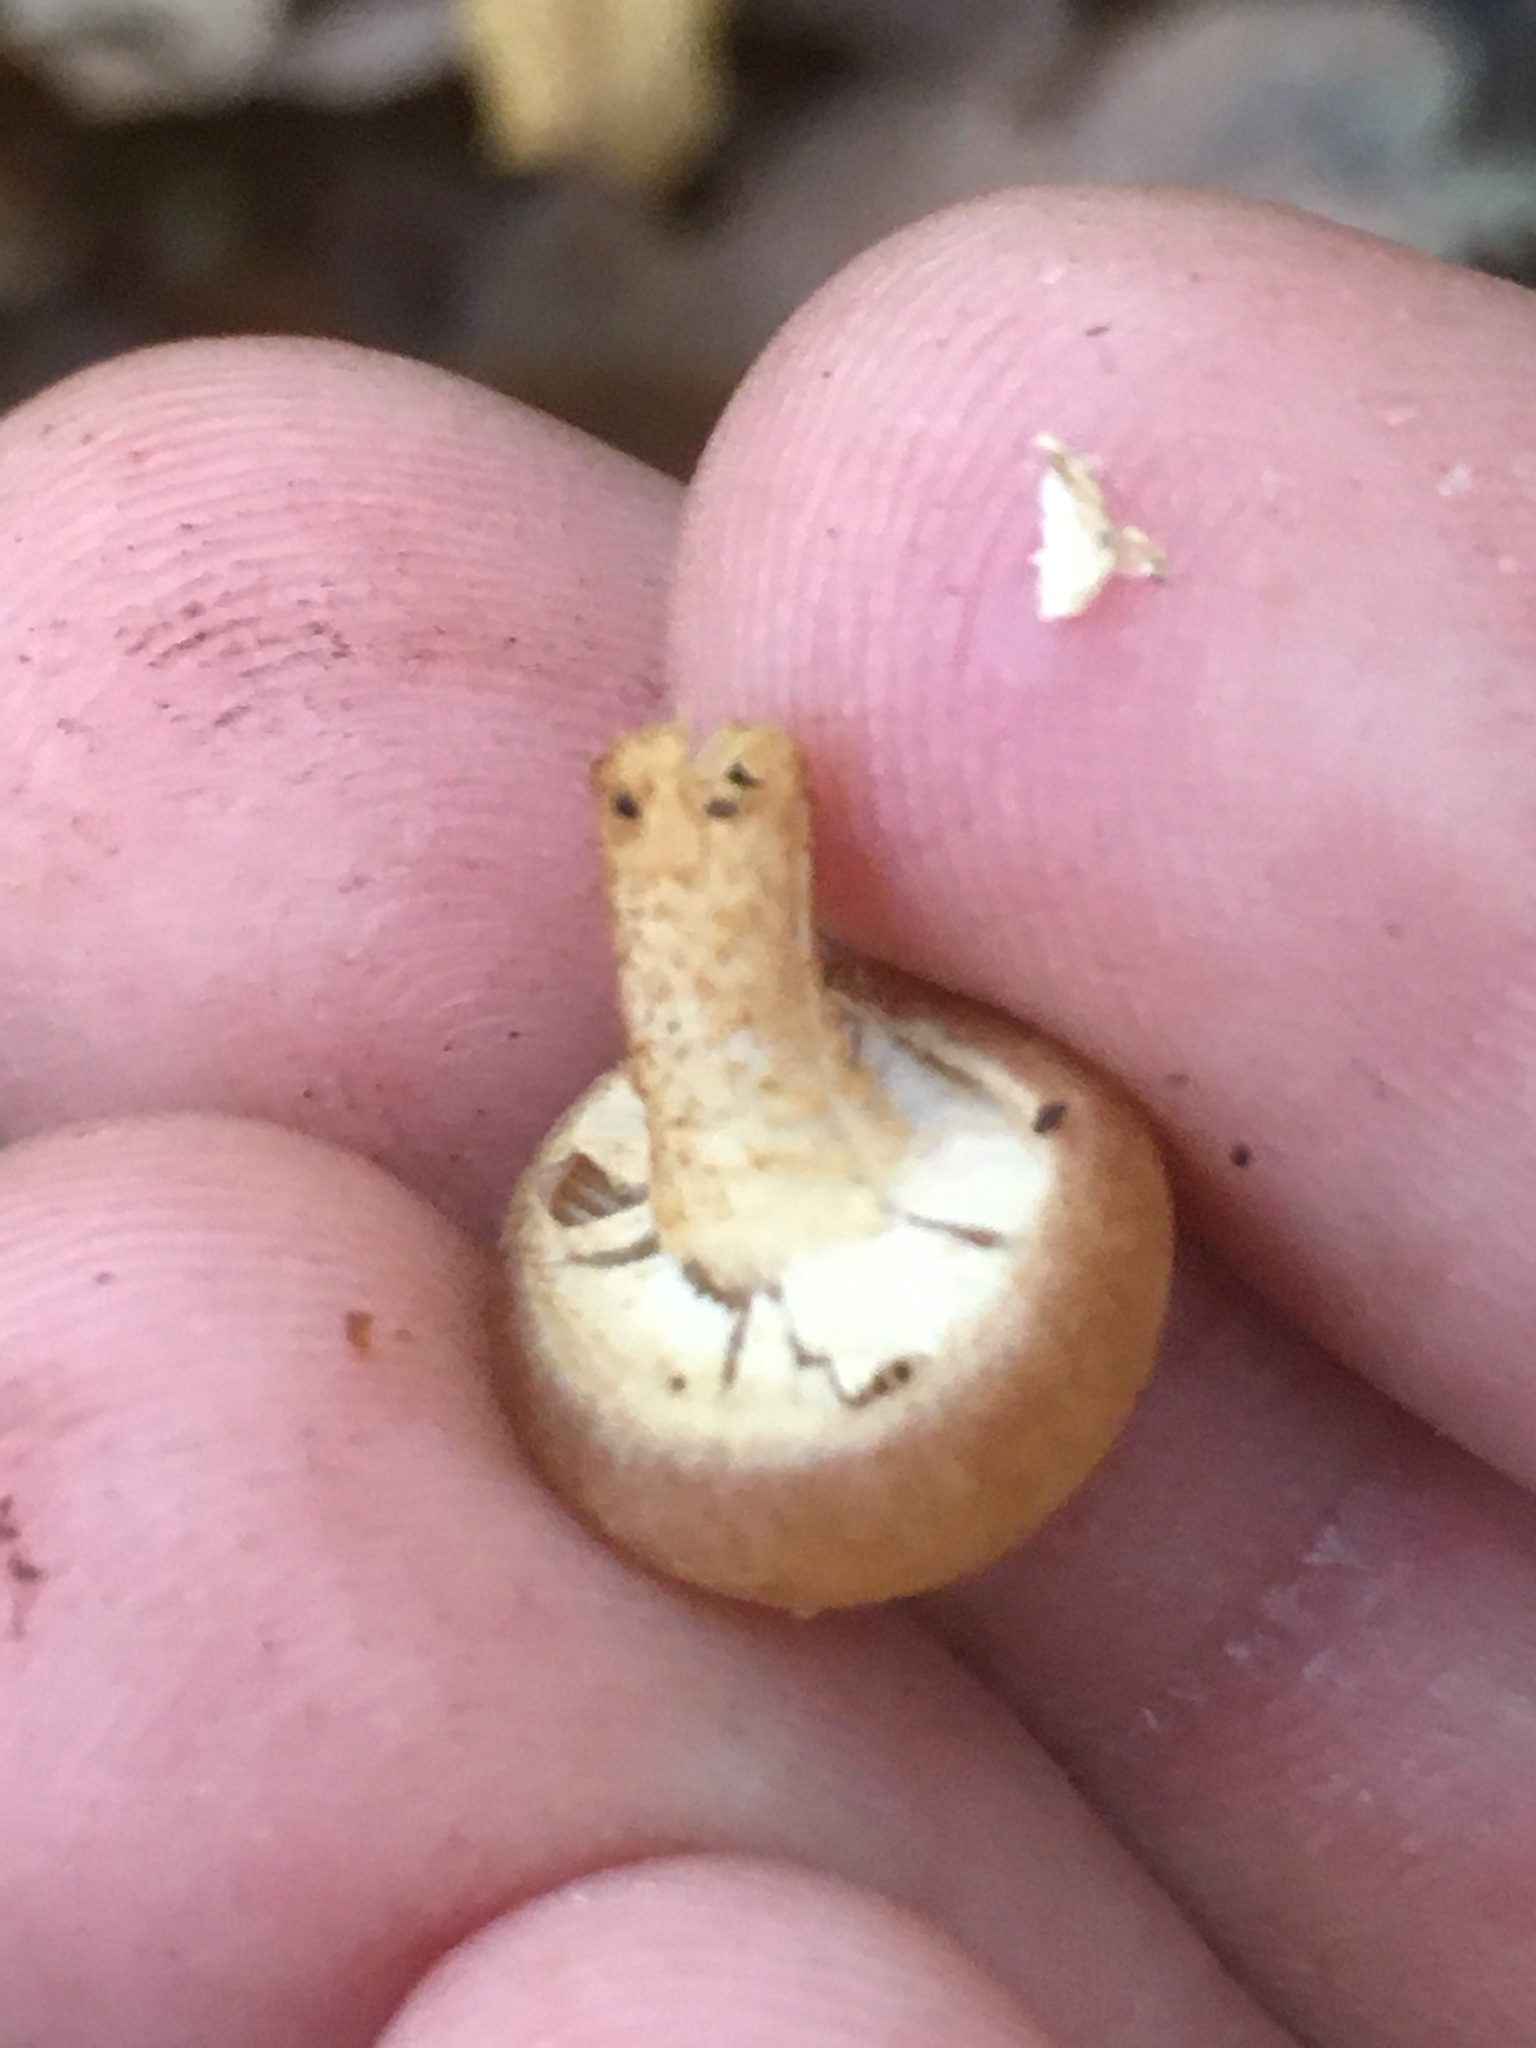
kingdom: Fungi
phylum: Basidiomycota
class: Agaricomycetes
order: Agaricales
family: Strophariaceae
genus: Kuehneromyces
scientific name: Kuehneromyces mutabilis
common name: Sheathed woodtuft
